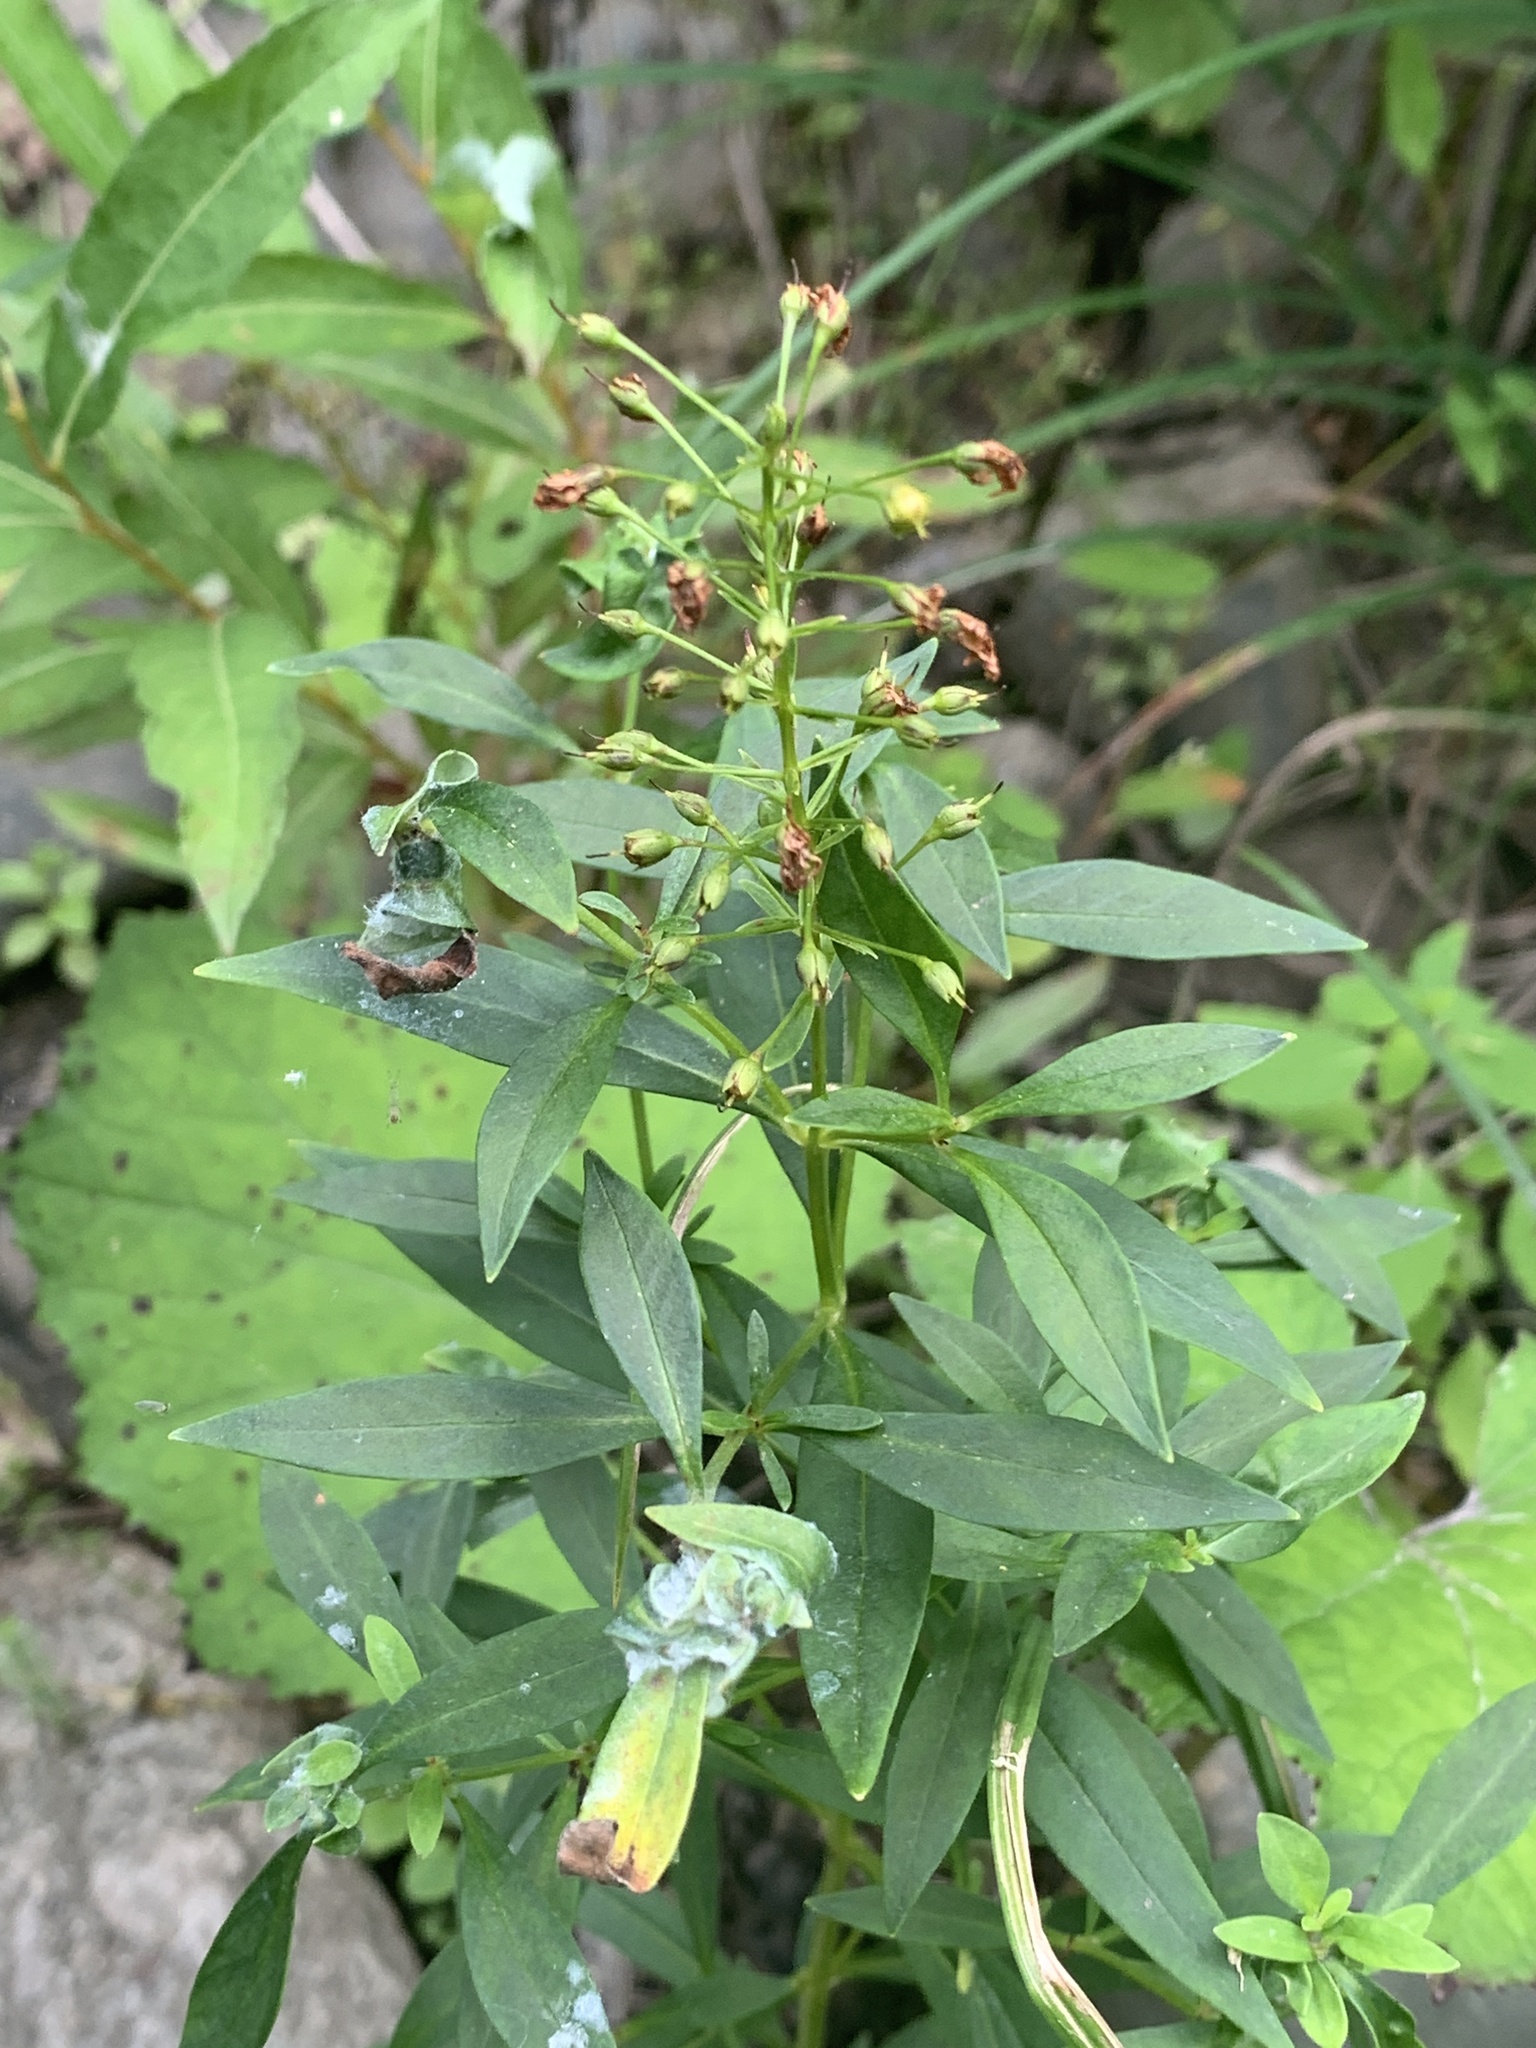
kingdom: Plantae
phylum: Tracheophyta
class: Magnoliopsida
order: Ericales
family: Primulaceae
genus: Lysimachia
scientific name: Lysimachia terrestris
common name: Lake loosestrife
